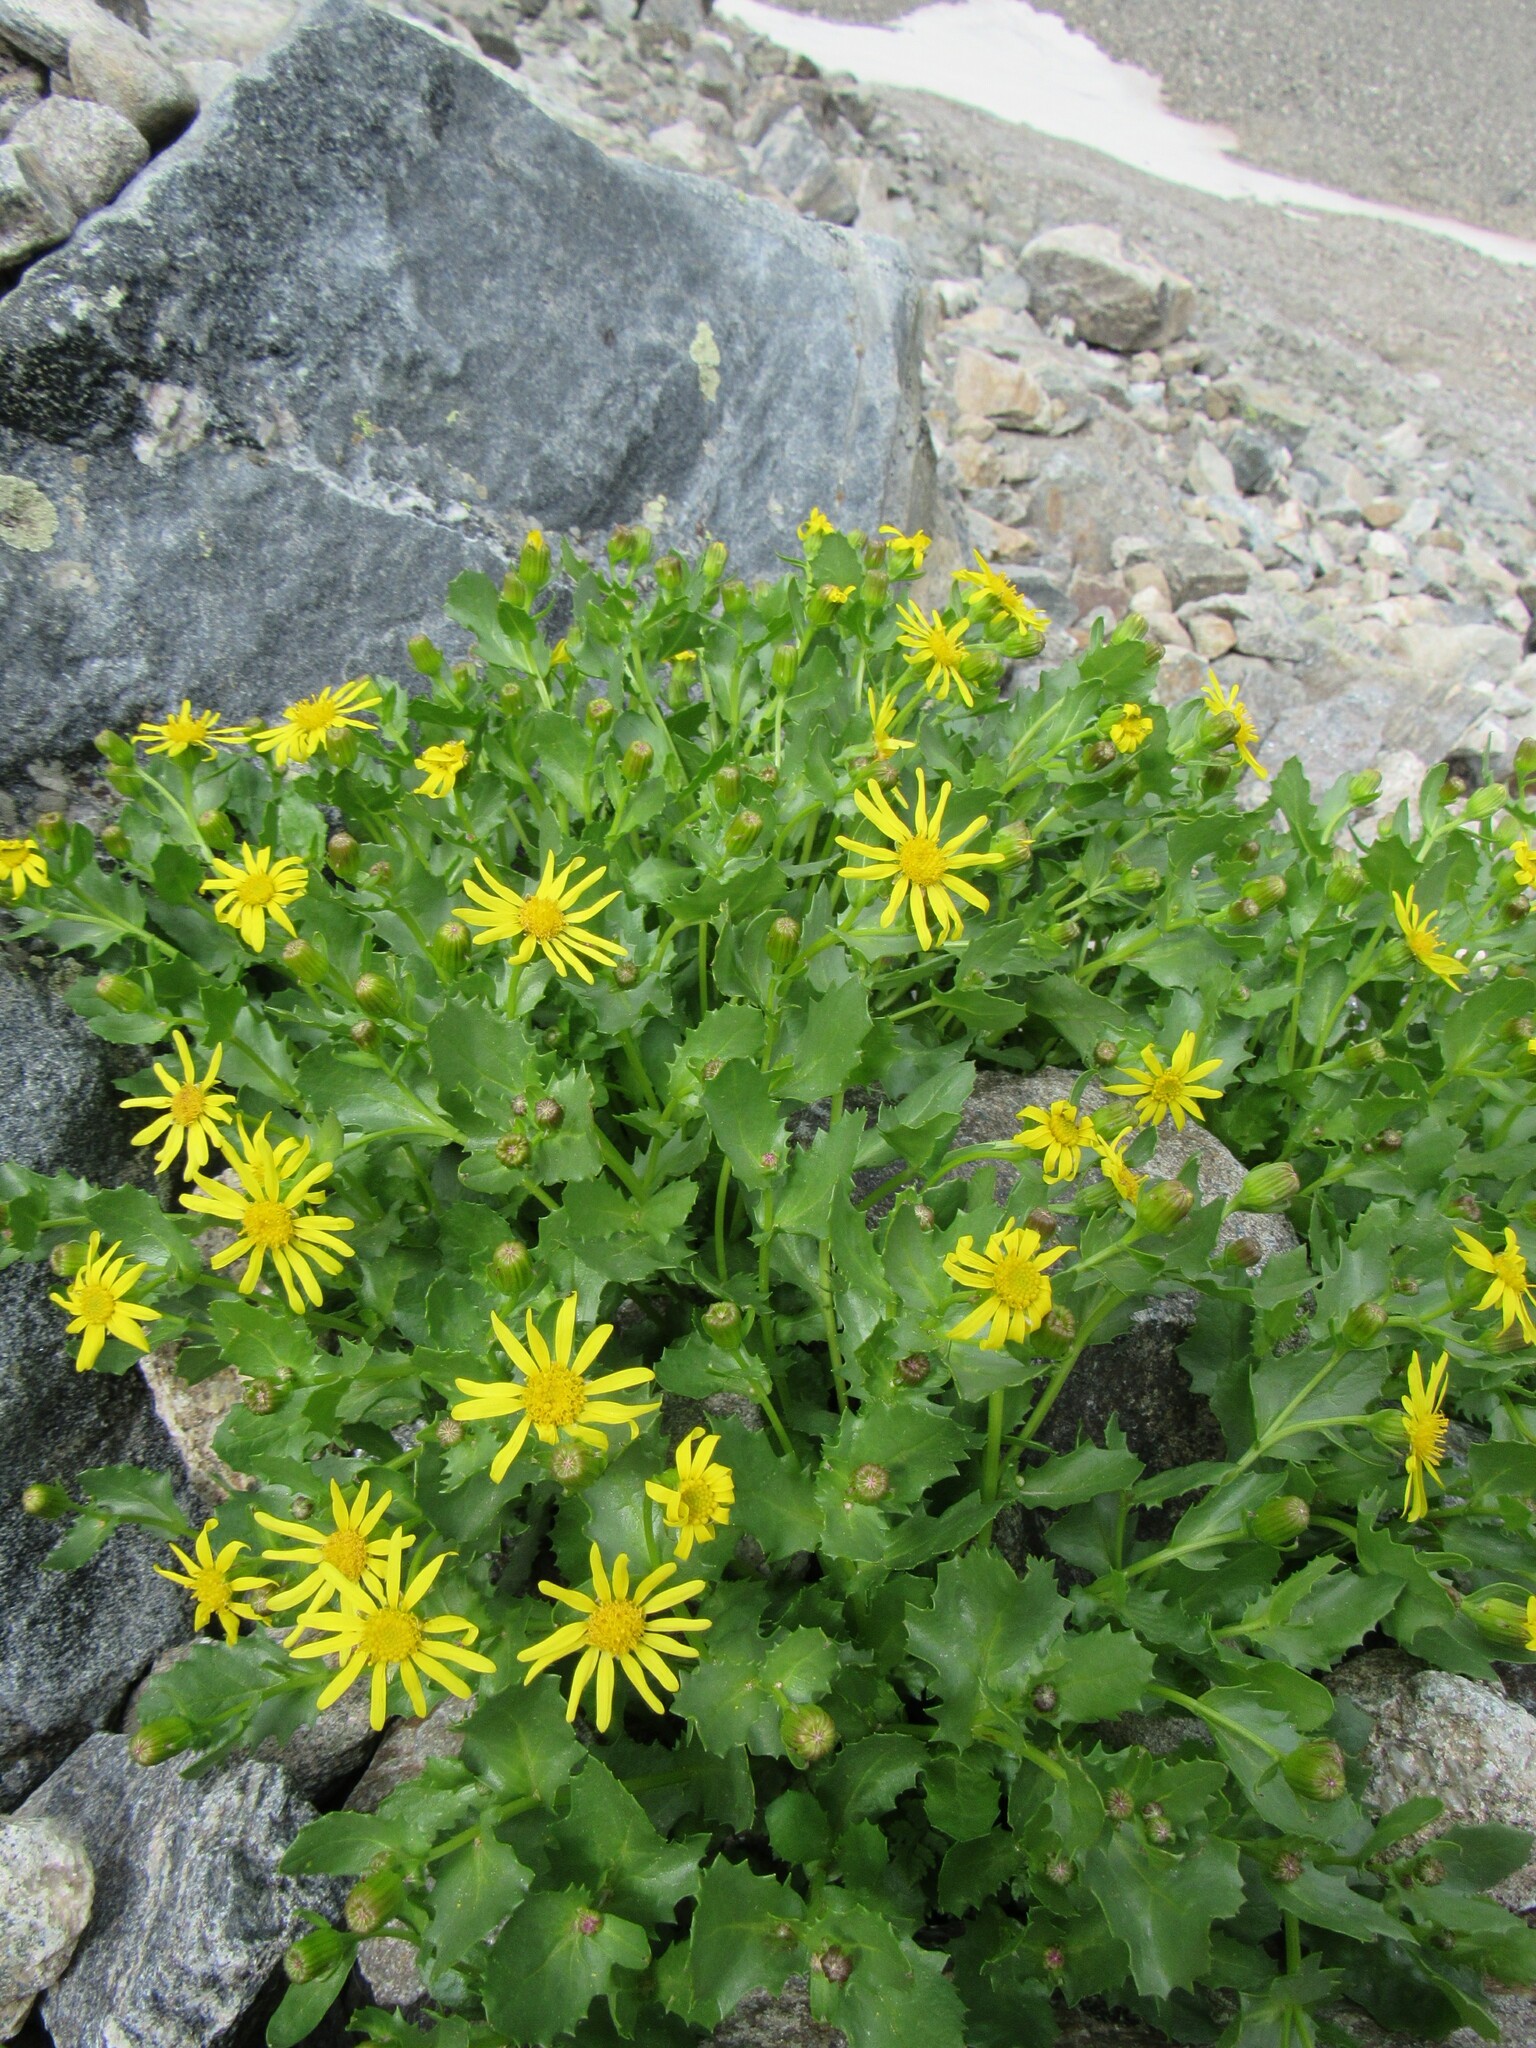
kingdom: Plantae
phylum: Tracheophyta
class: Magnoliopsida
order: Asterales
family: Asteraceae
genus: Senecio
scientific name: Senecio fremontii
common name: Fremont's groundsel
